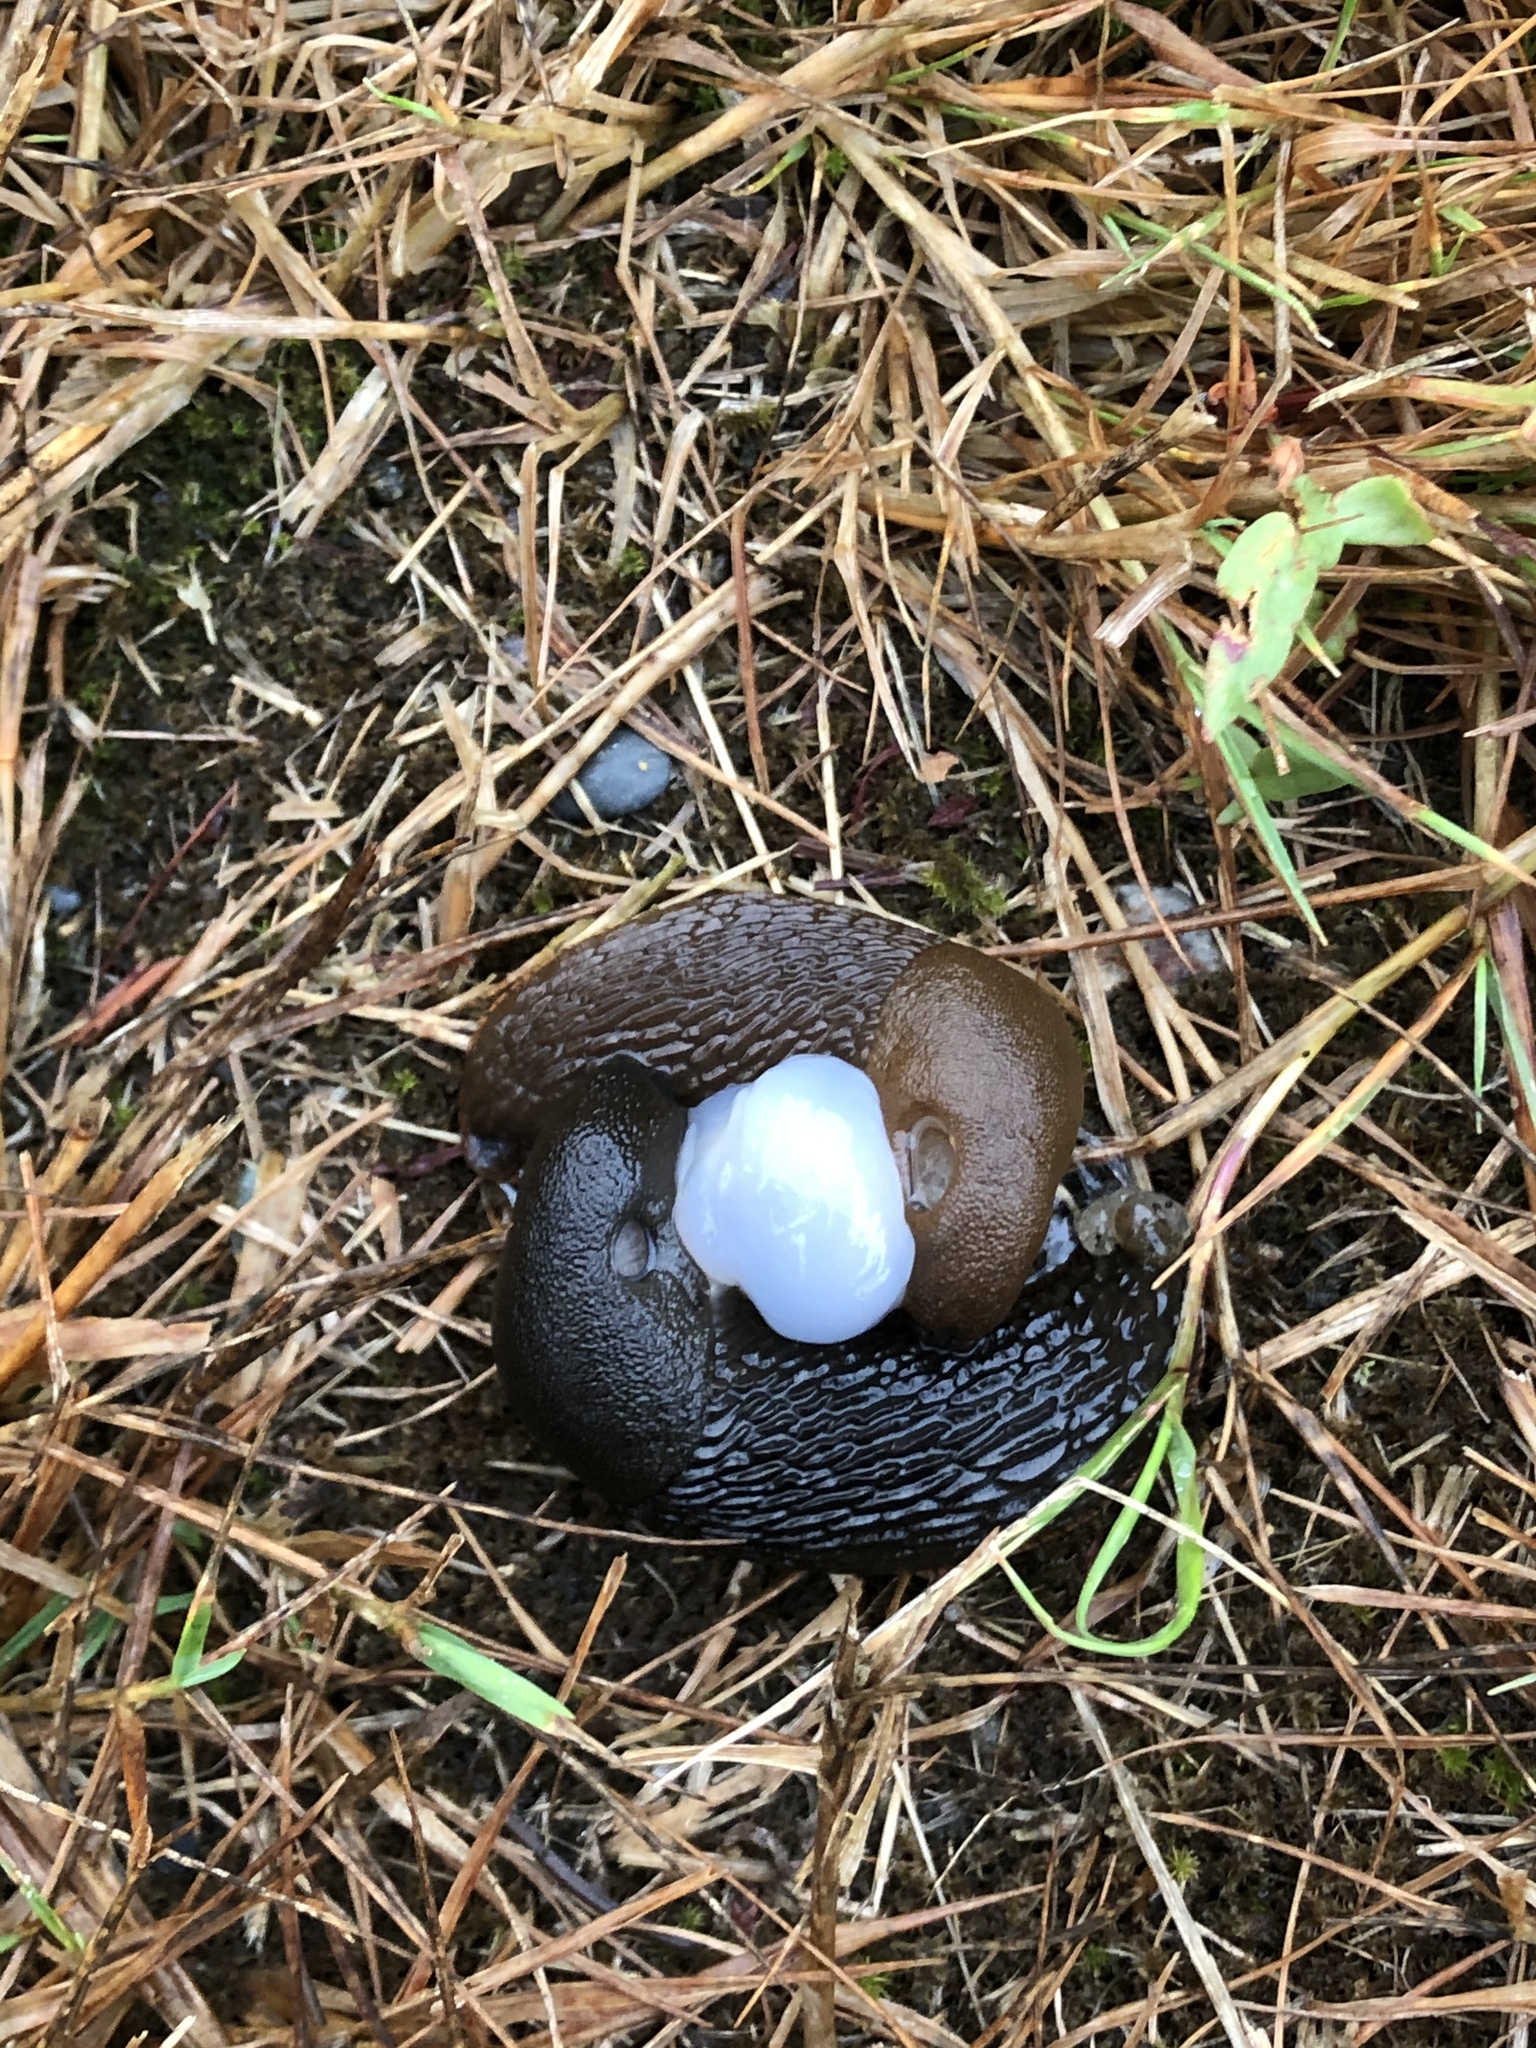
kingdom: Animalia
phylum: Mollusca
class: Gastropoda
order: Stylommatophora
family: Arionidae
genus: Arion
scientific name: Arion rufus
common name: Chocolate arion
